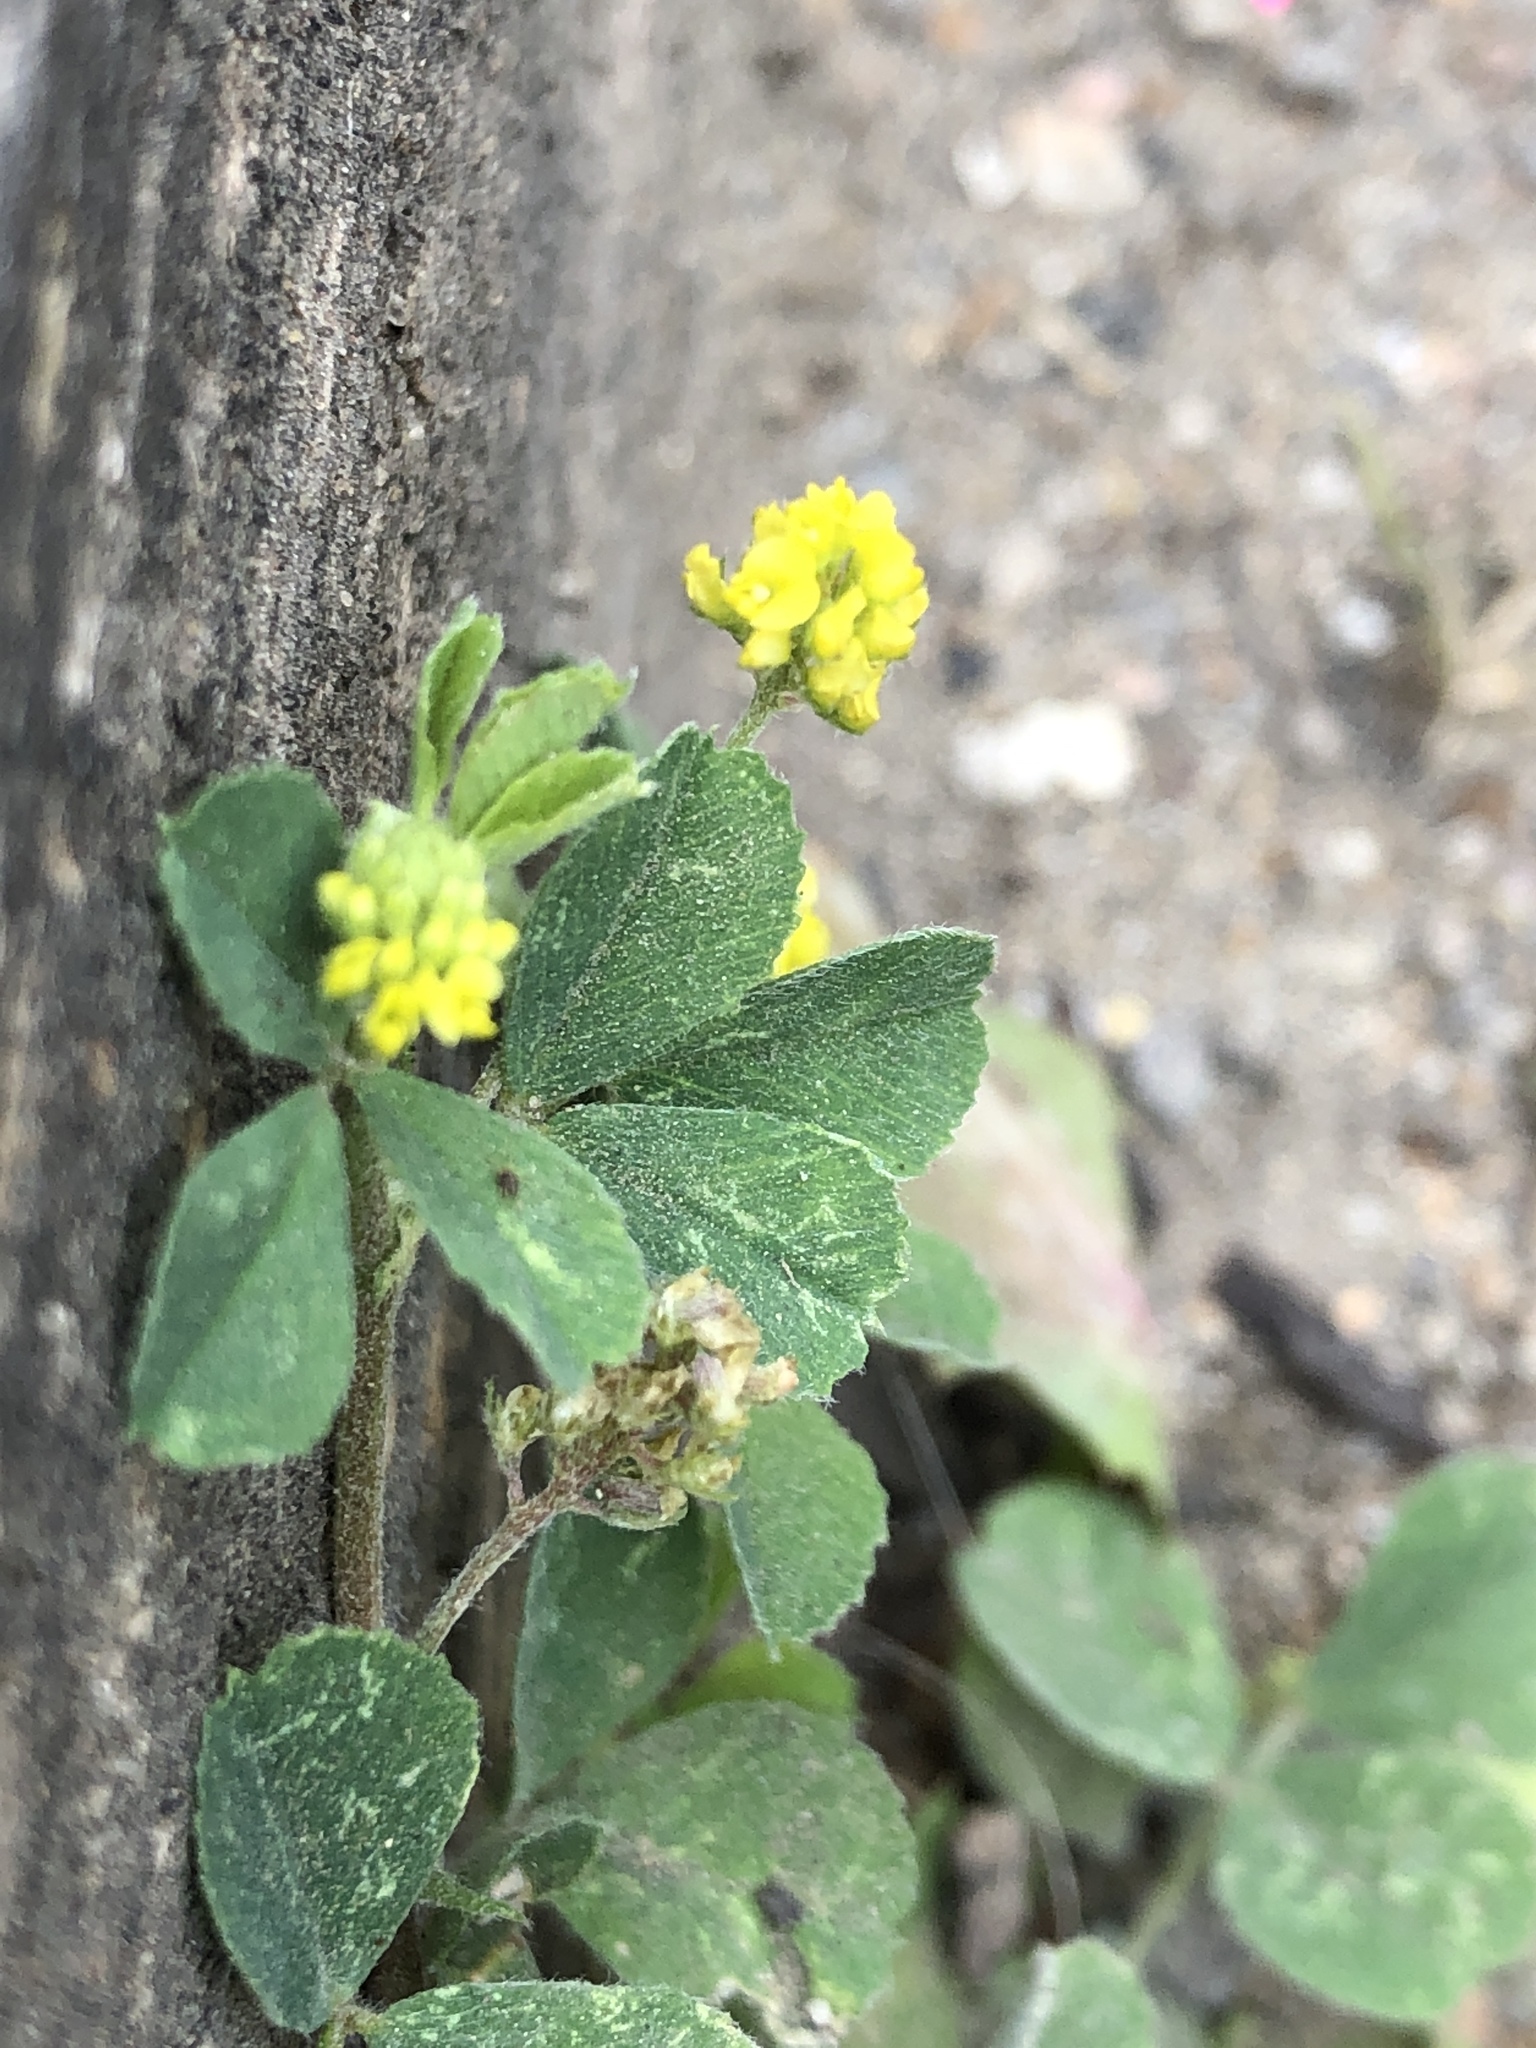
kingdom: Plantae
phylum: Tracheophyta
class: Magnoliopsida
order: Fabales
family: Fabaceae
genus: Medicago
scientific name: Medicago lupulina
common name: Black medick
